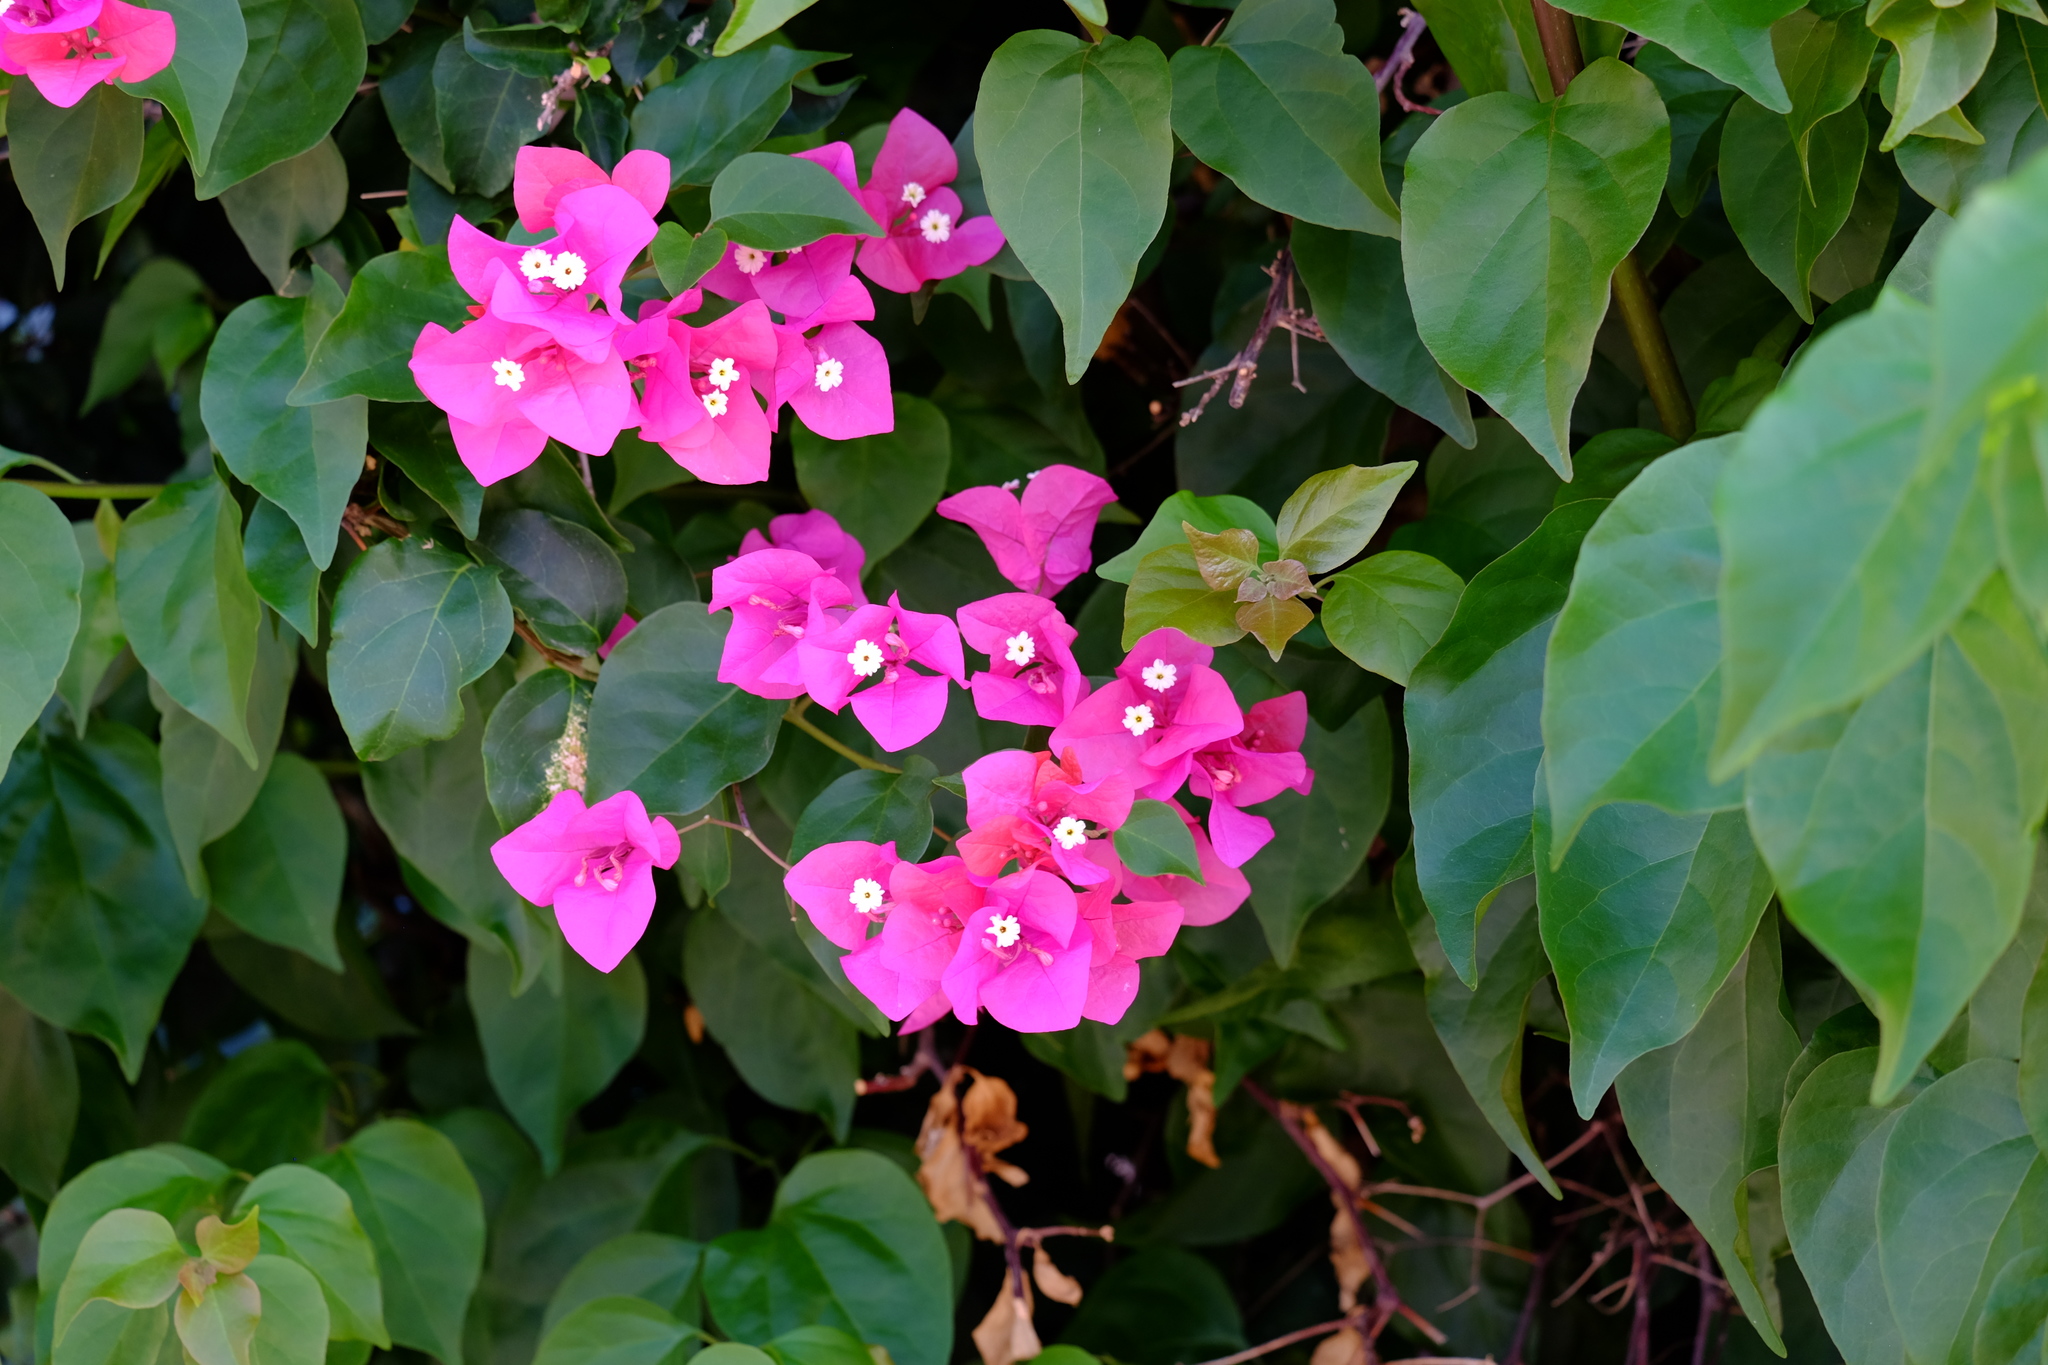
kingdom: Plantae
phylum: Tracheophyta
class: Magnoliopsida
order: Caryophyllales
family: Nyctaginaceae
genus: Bougainvillea
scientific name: Bougainvillea glabra
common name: Paperflower
